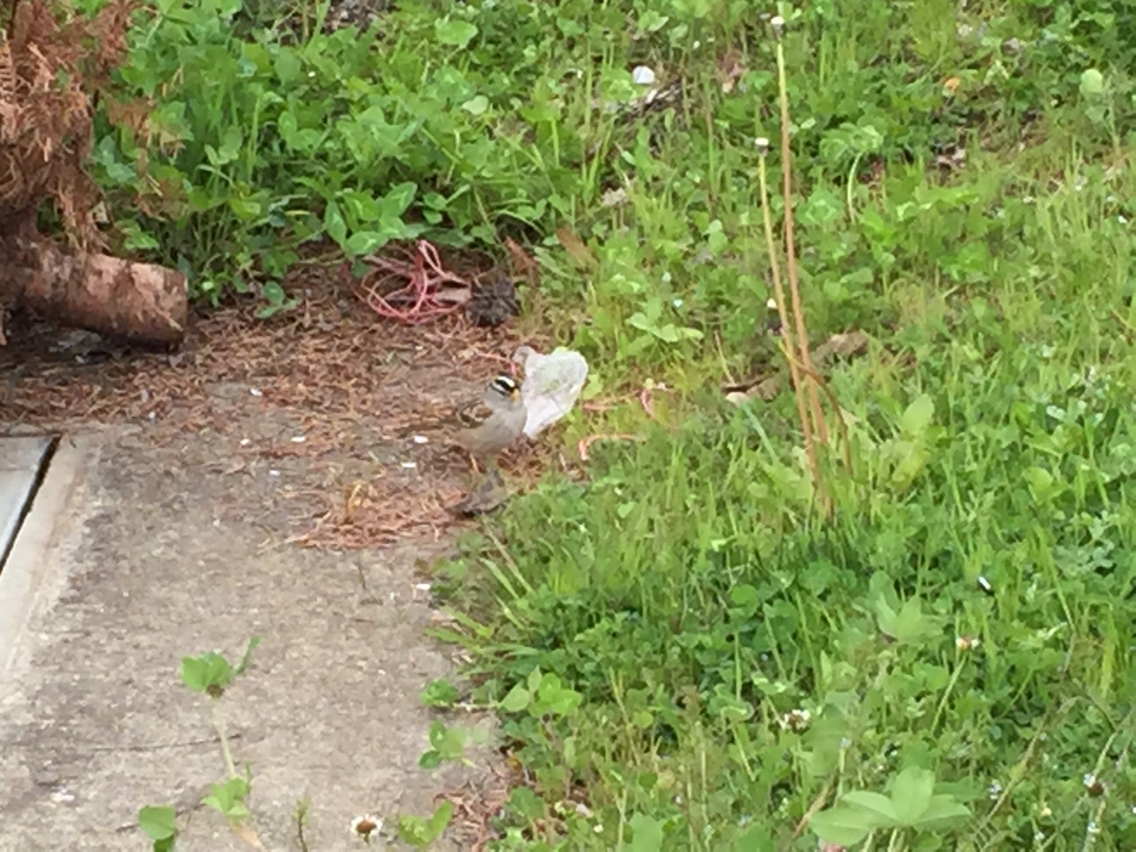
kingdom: Animalia
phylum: Chordata
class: Aves
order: Passeriformes
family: Passerellidae
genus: Zonotrichia
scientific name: Zonotrichia leucophrys
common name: White-crowned sparrow
